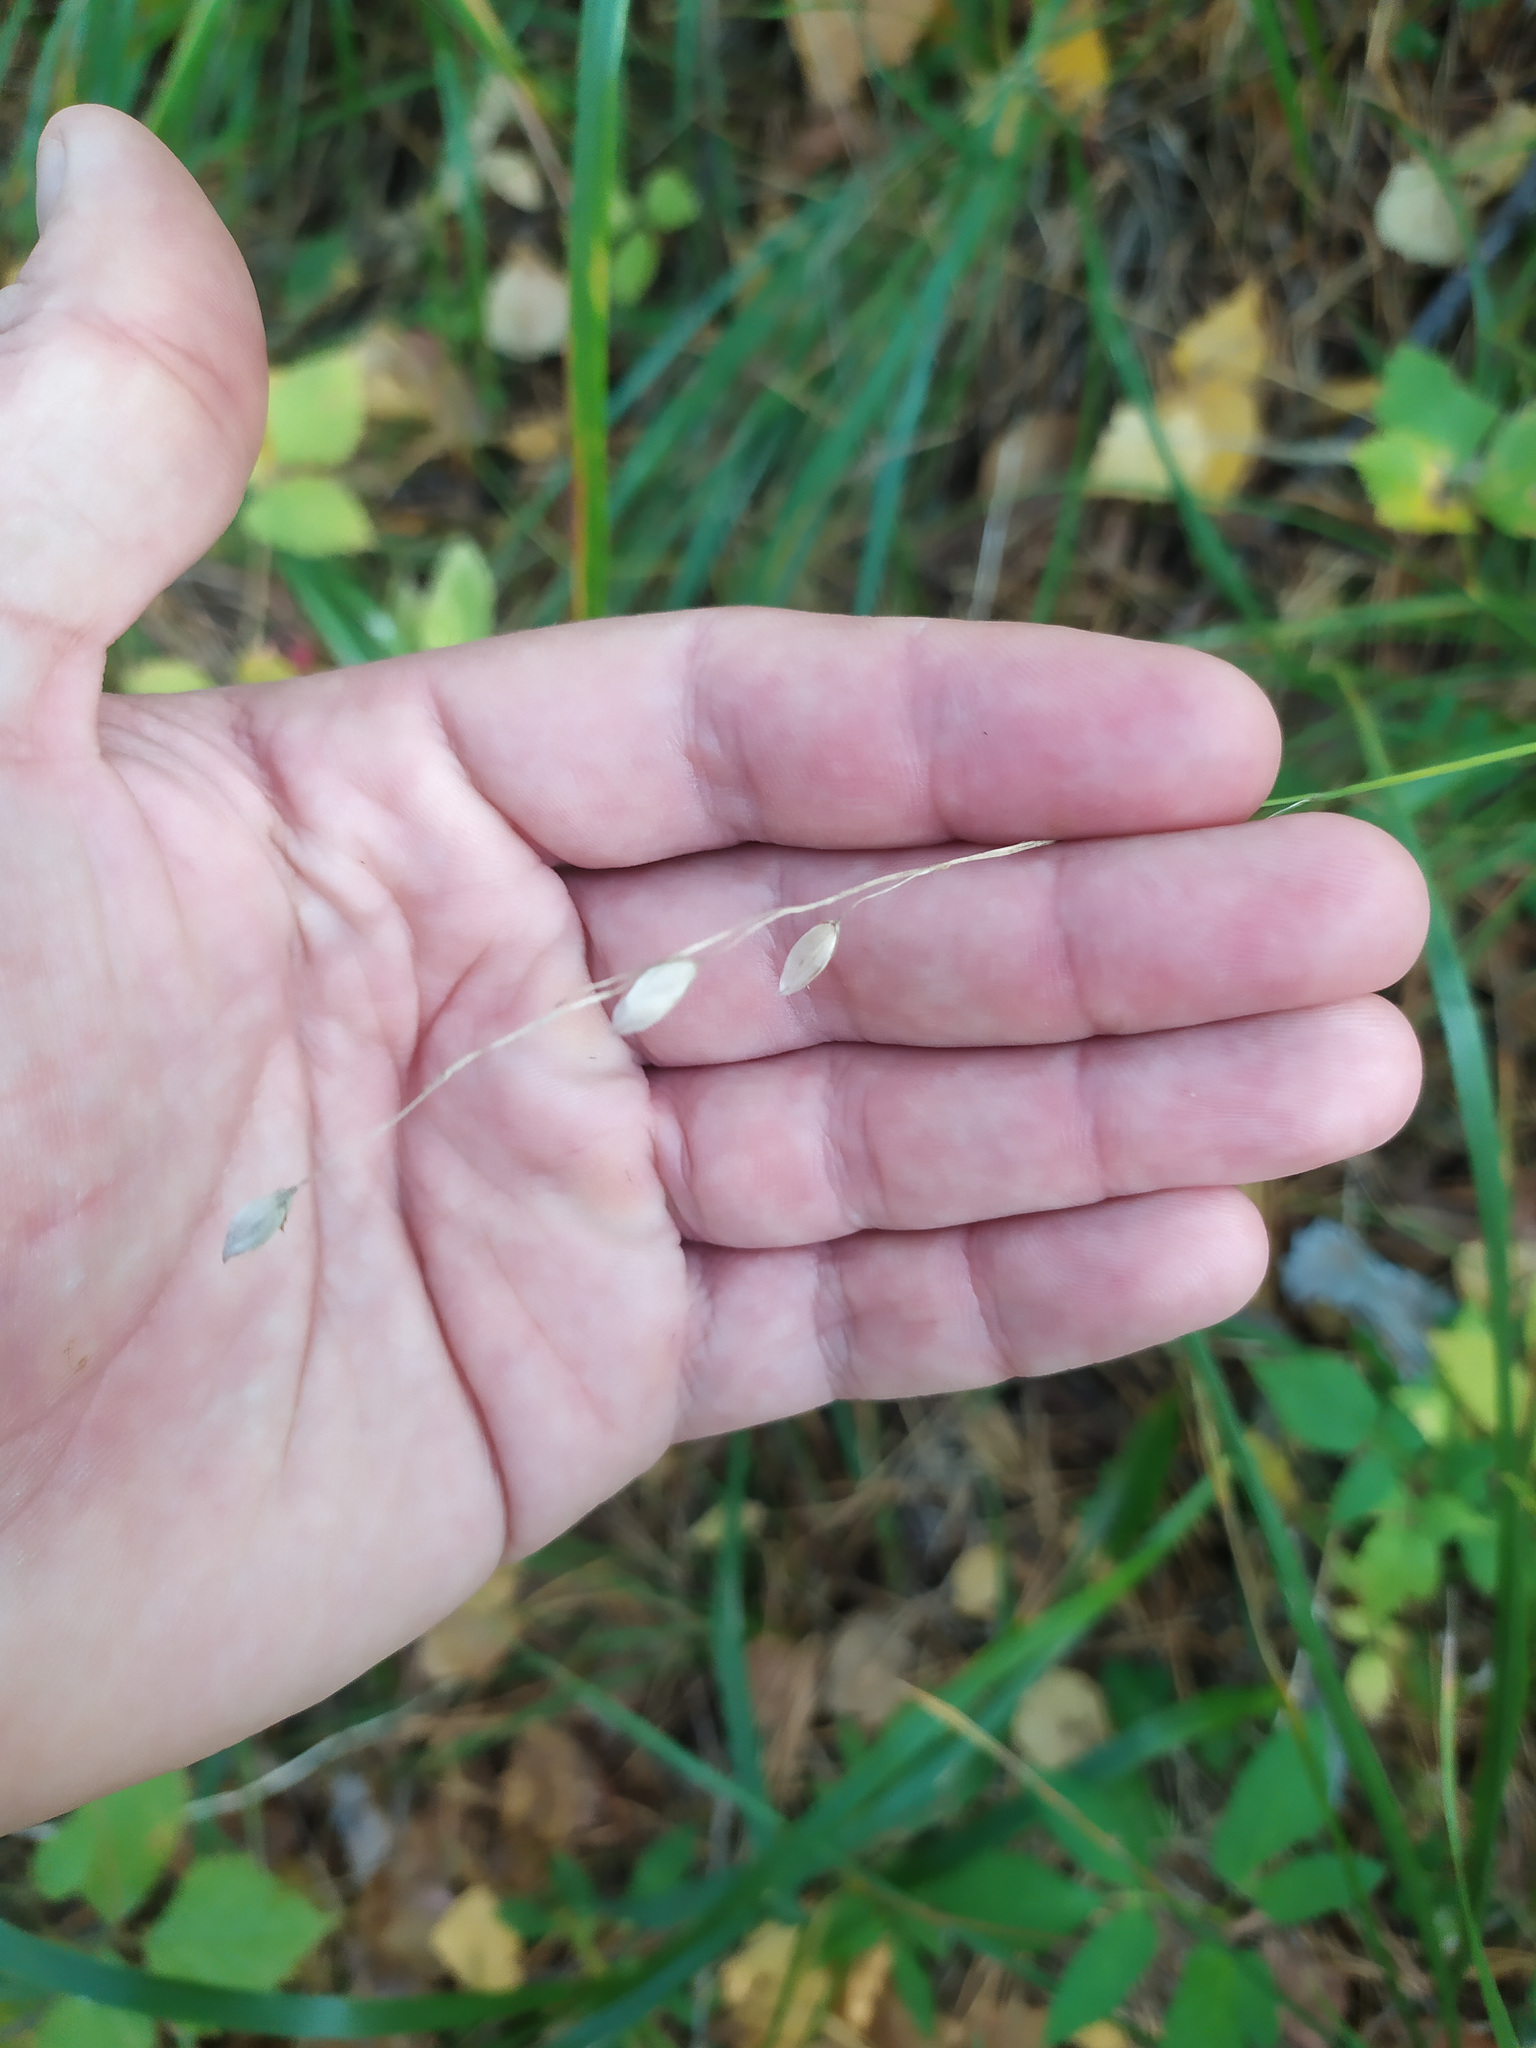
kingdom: Plantae
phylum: Tracheophyta
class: Liliopsida
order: Poales
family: Poaceae
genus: Melica
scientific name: Melica nutans
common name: Mountain melick
